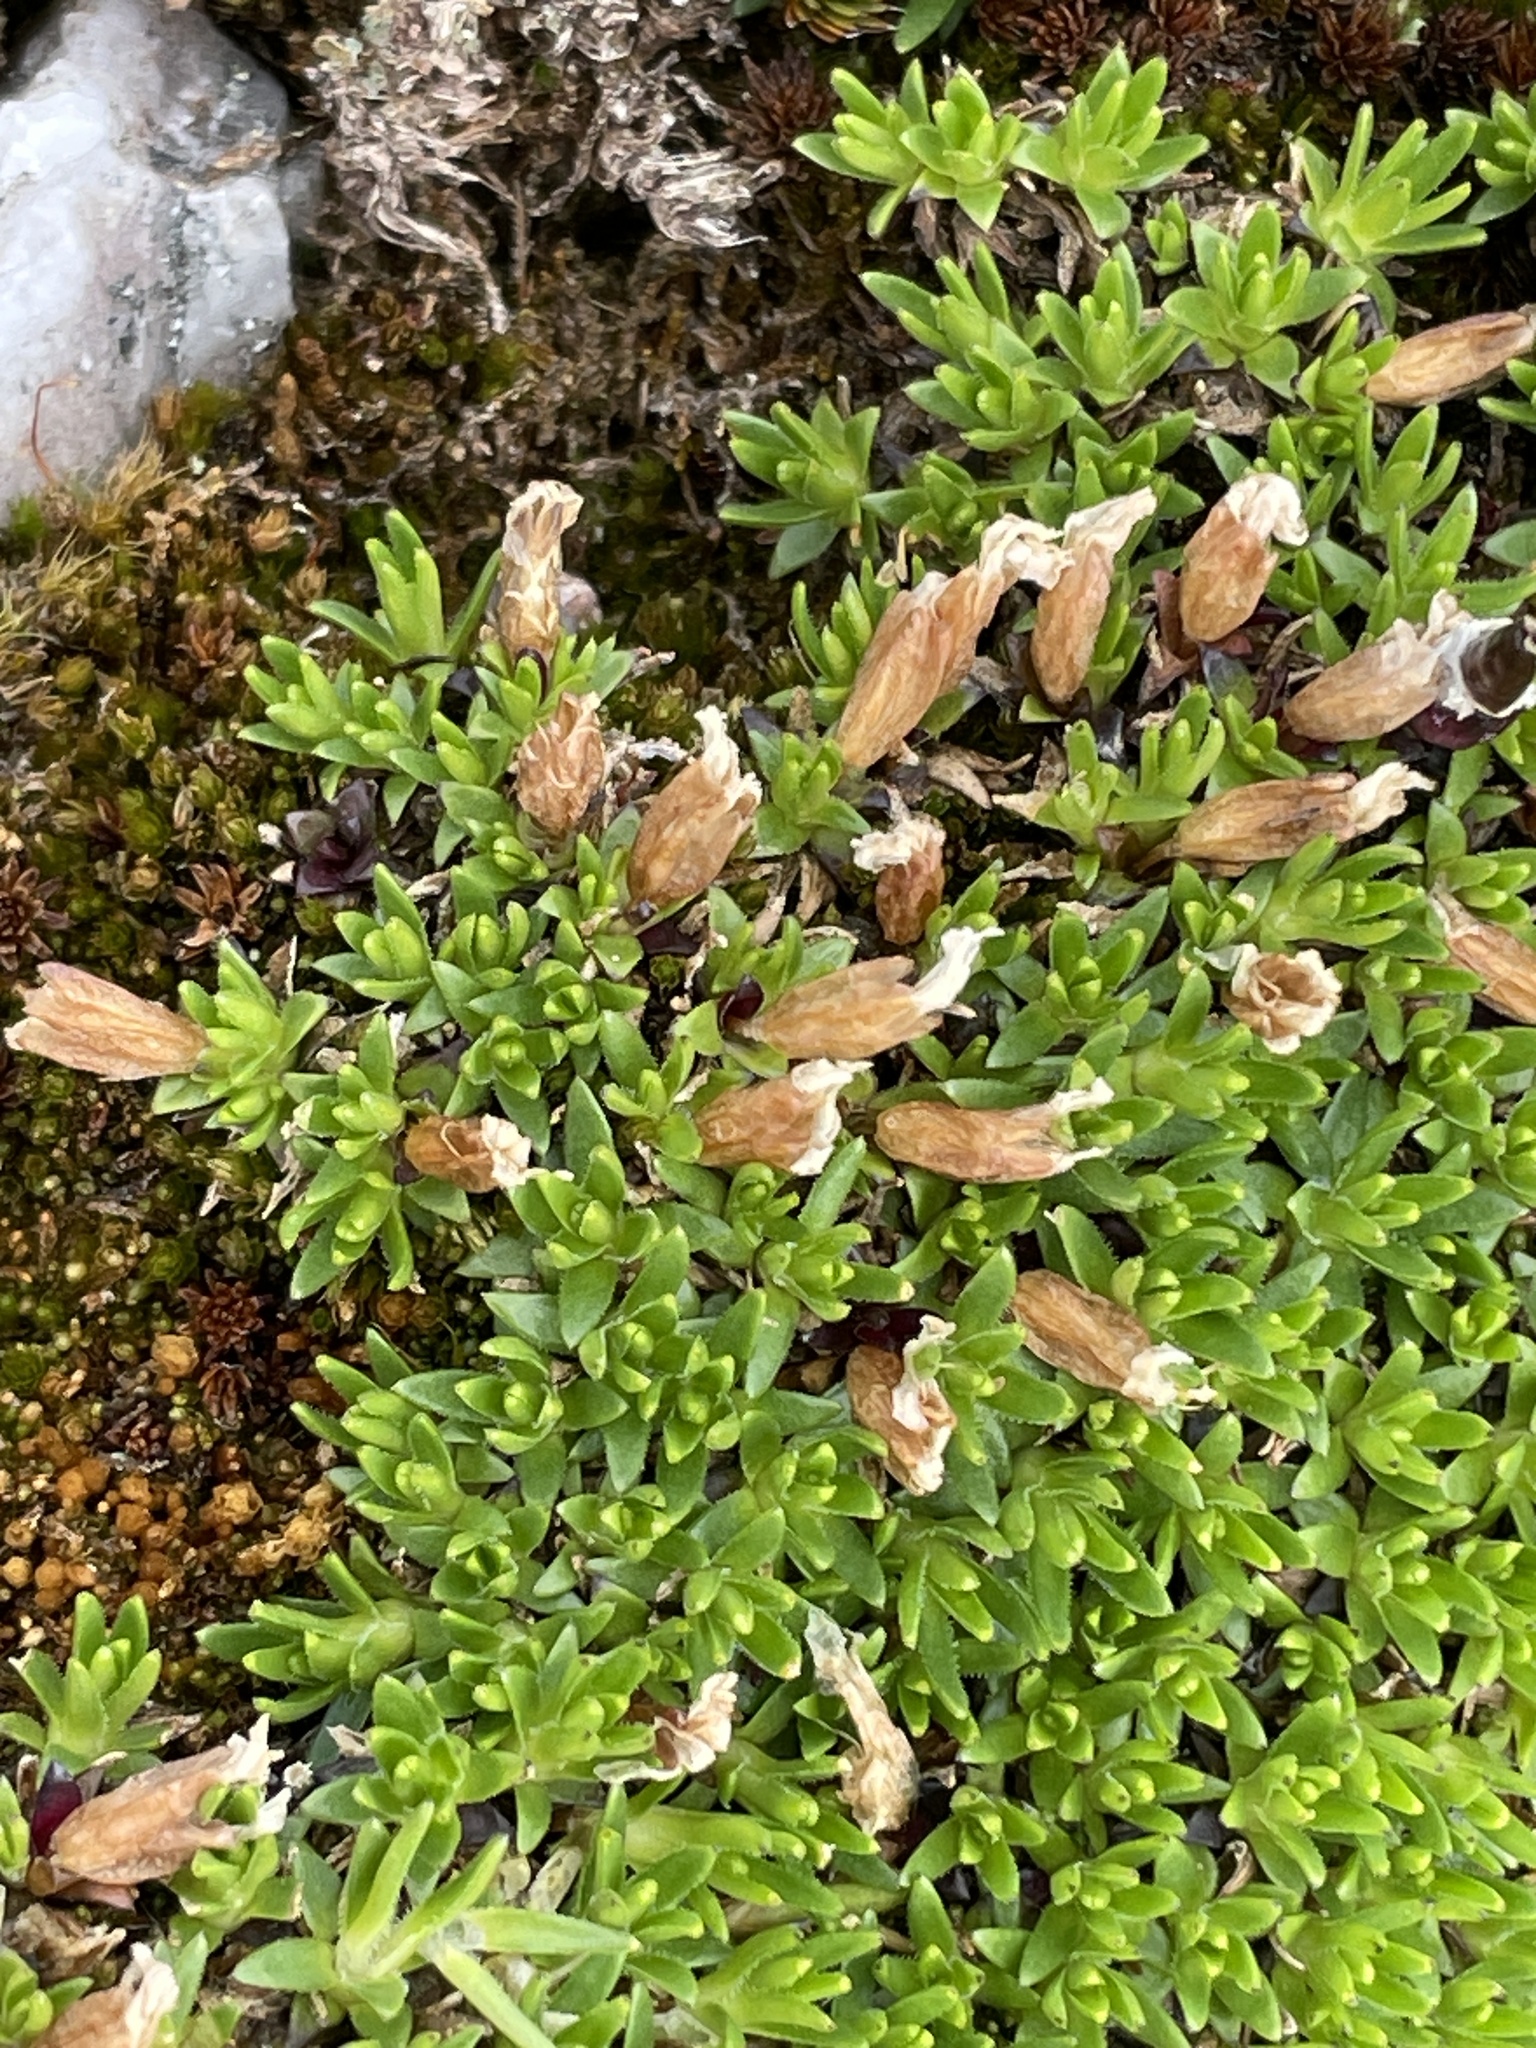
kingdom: Plantae
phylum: Tracheophyta
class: Magnoliopsida
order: Caryophyllales
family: Caryophyllaceae
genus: Silene
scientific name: Silene acaulis
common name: Moss campion
